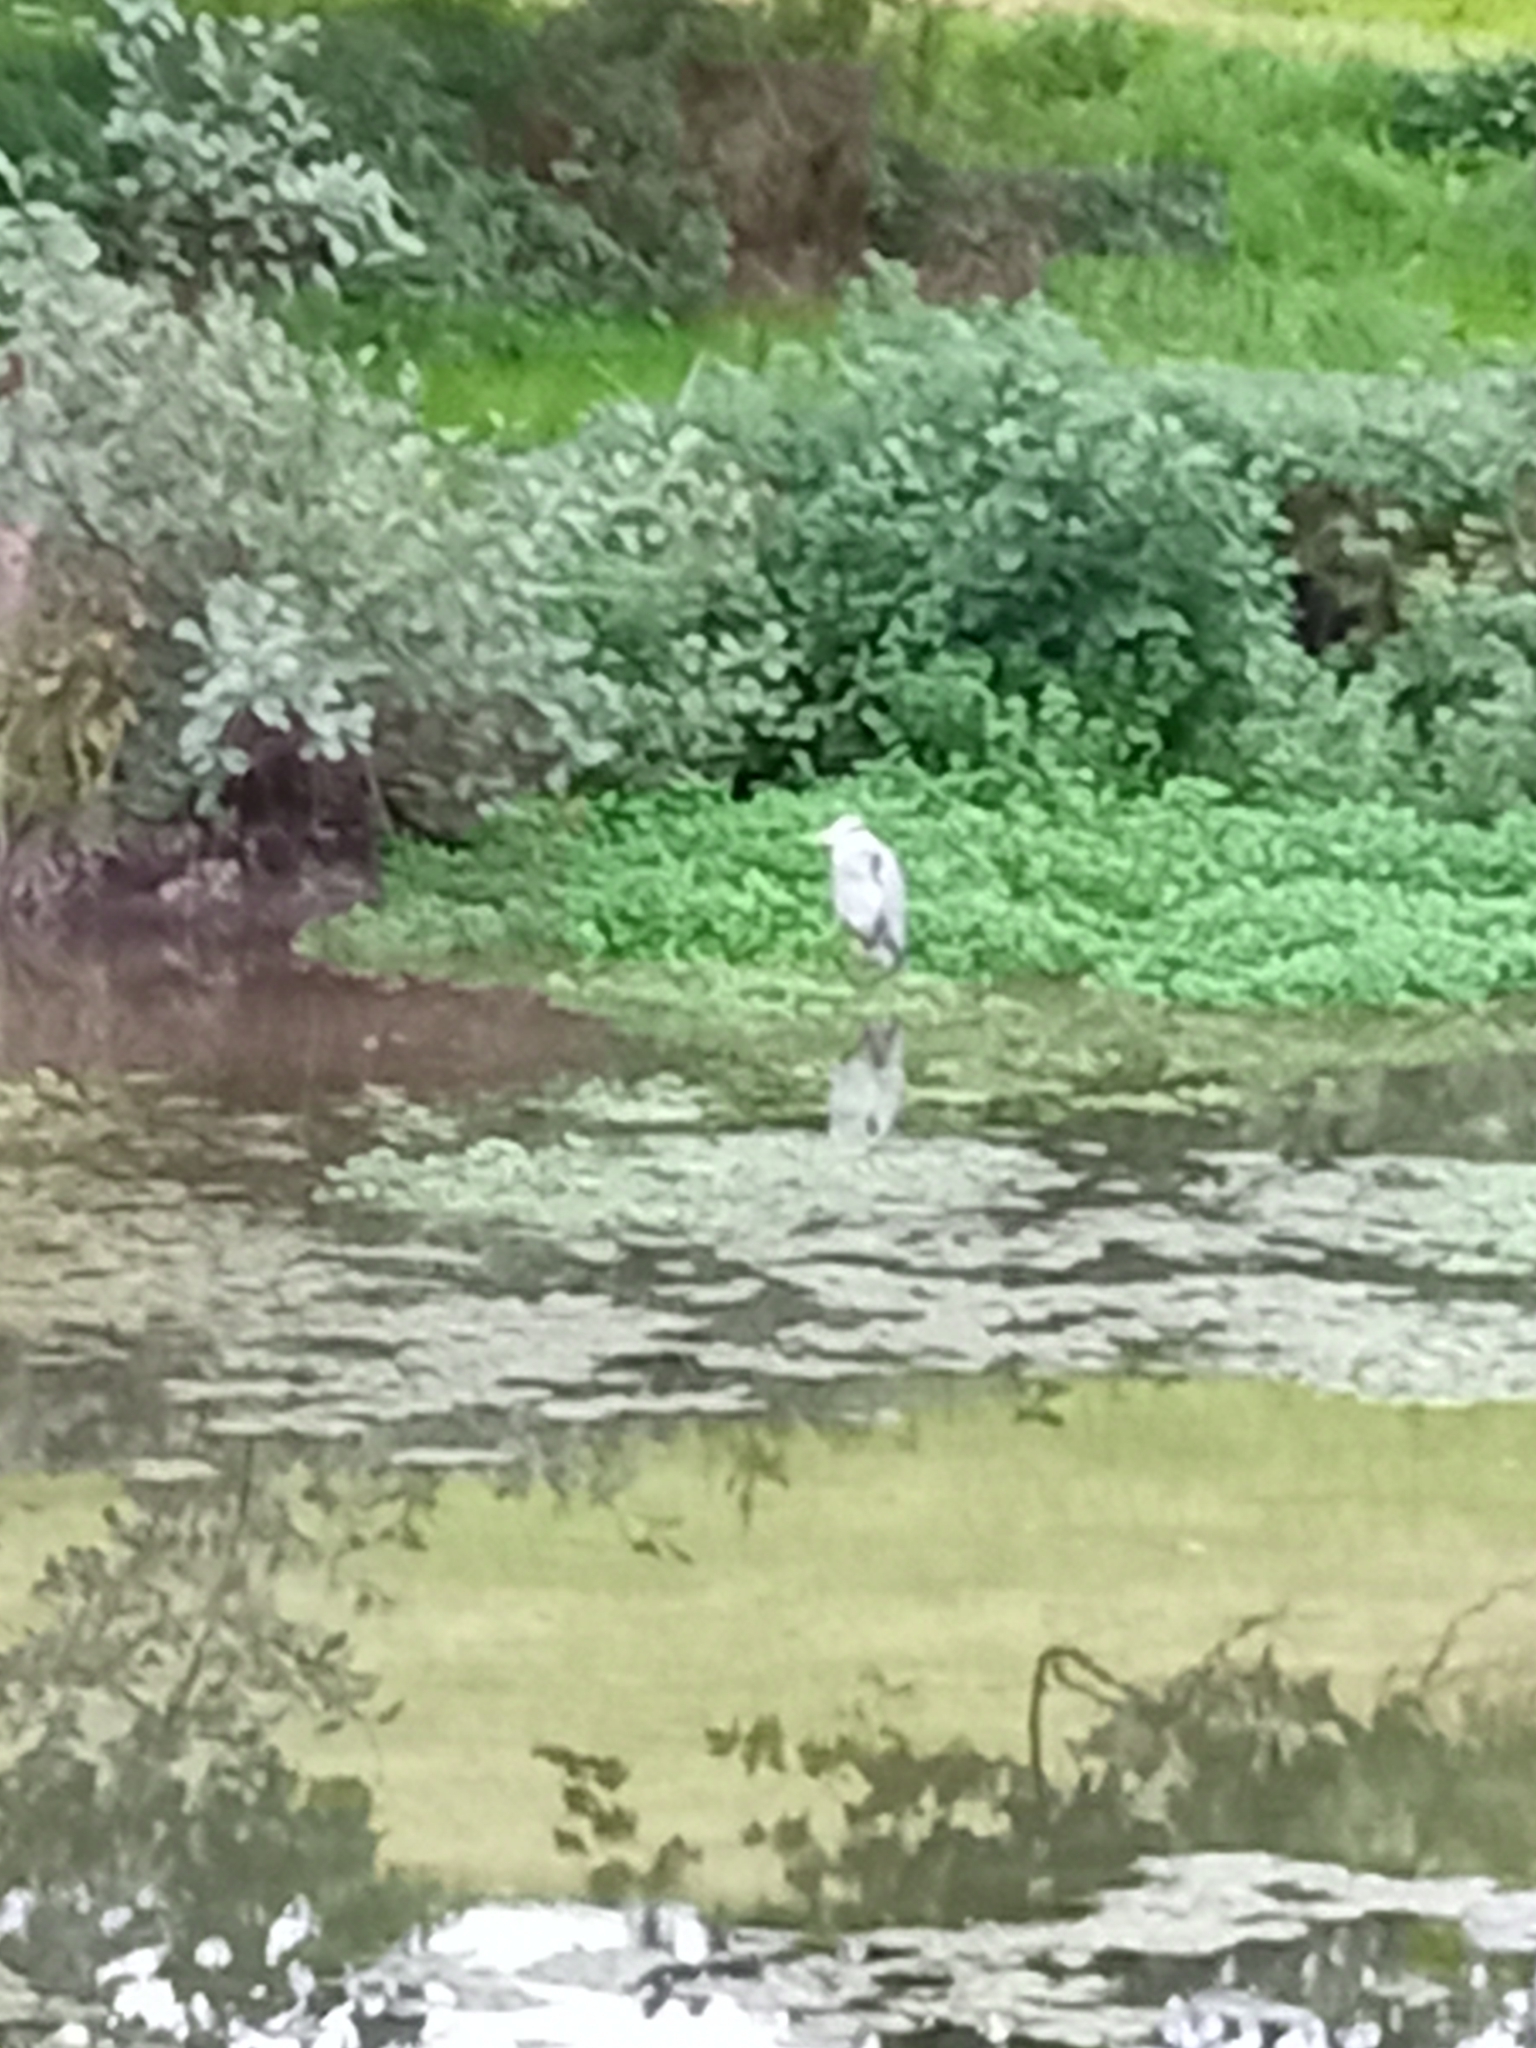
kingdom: Animalia
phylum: Chordata
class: Aves
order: Pelecaniformes
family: Ardeidae
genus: Ardea
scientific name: Ardea cinerea
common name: Grey heron
